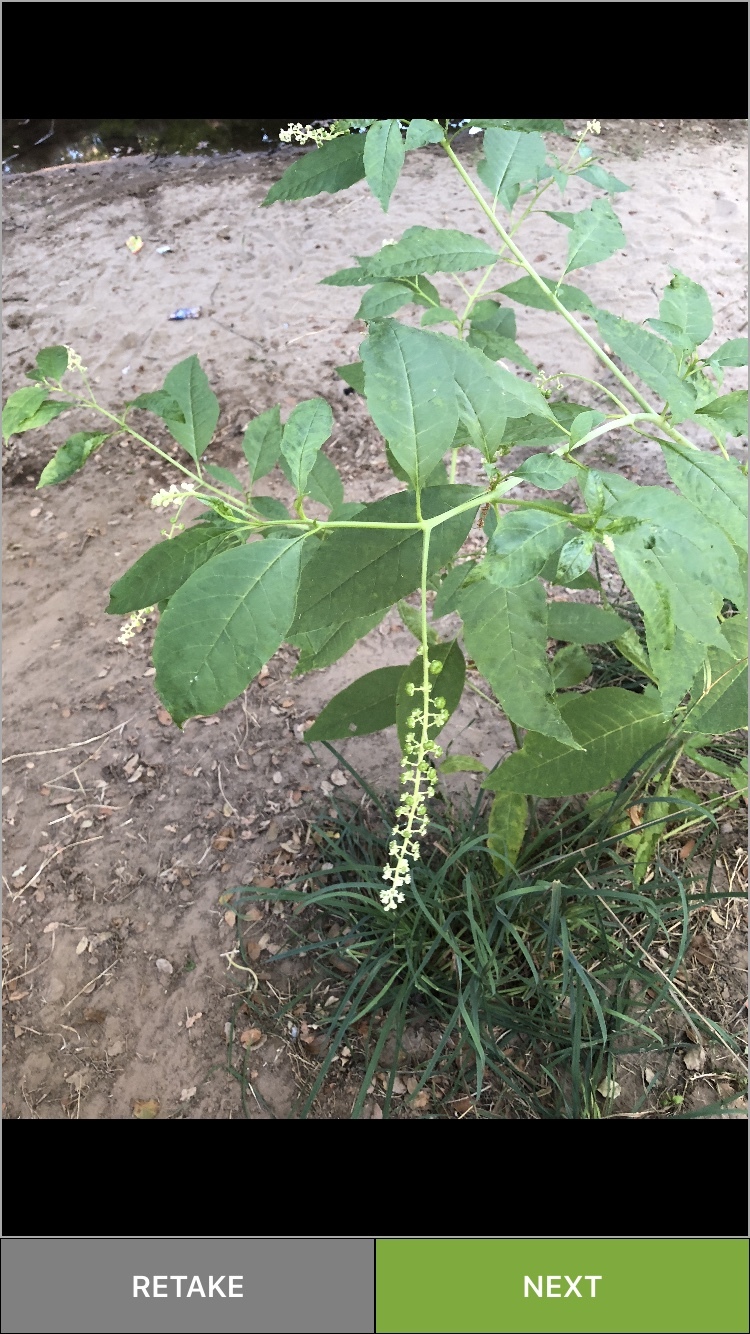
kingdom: Plantae
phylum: Tracheophyta
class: Magnoliopsida
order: Caryophyllales
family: Phytolaccaceae
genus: Phytolacca
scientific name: Phytolacca americana
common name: American pokeweed
